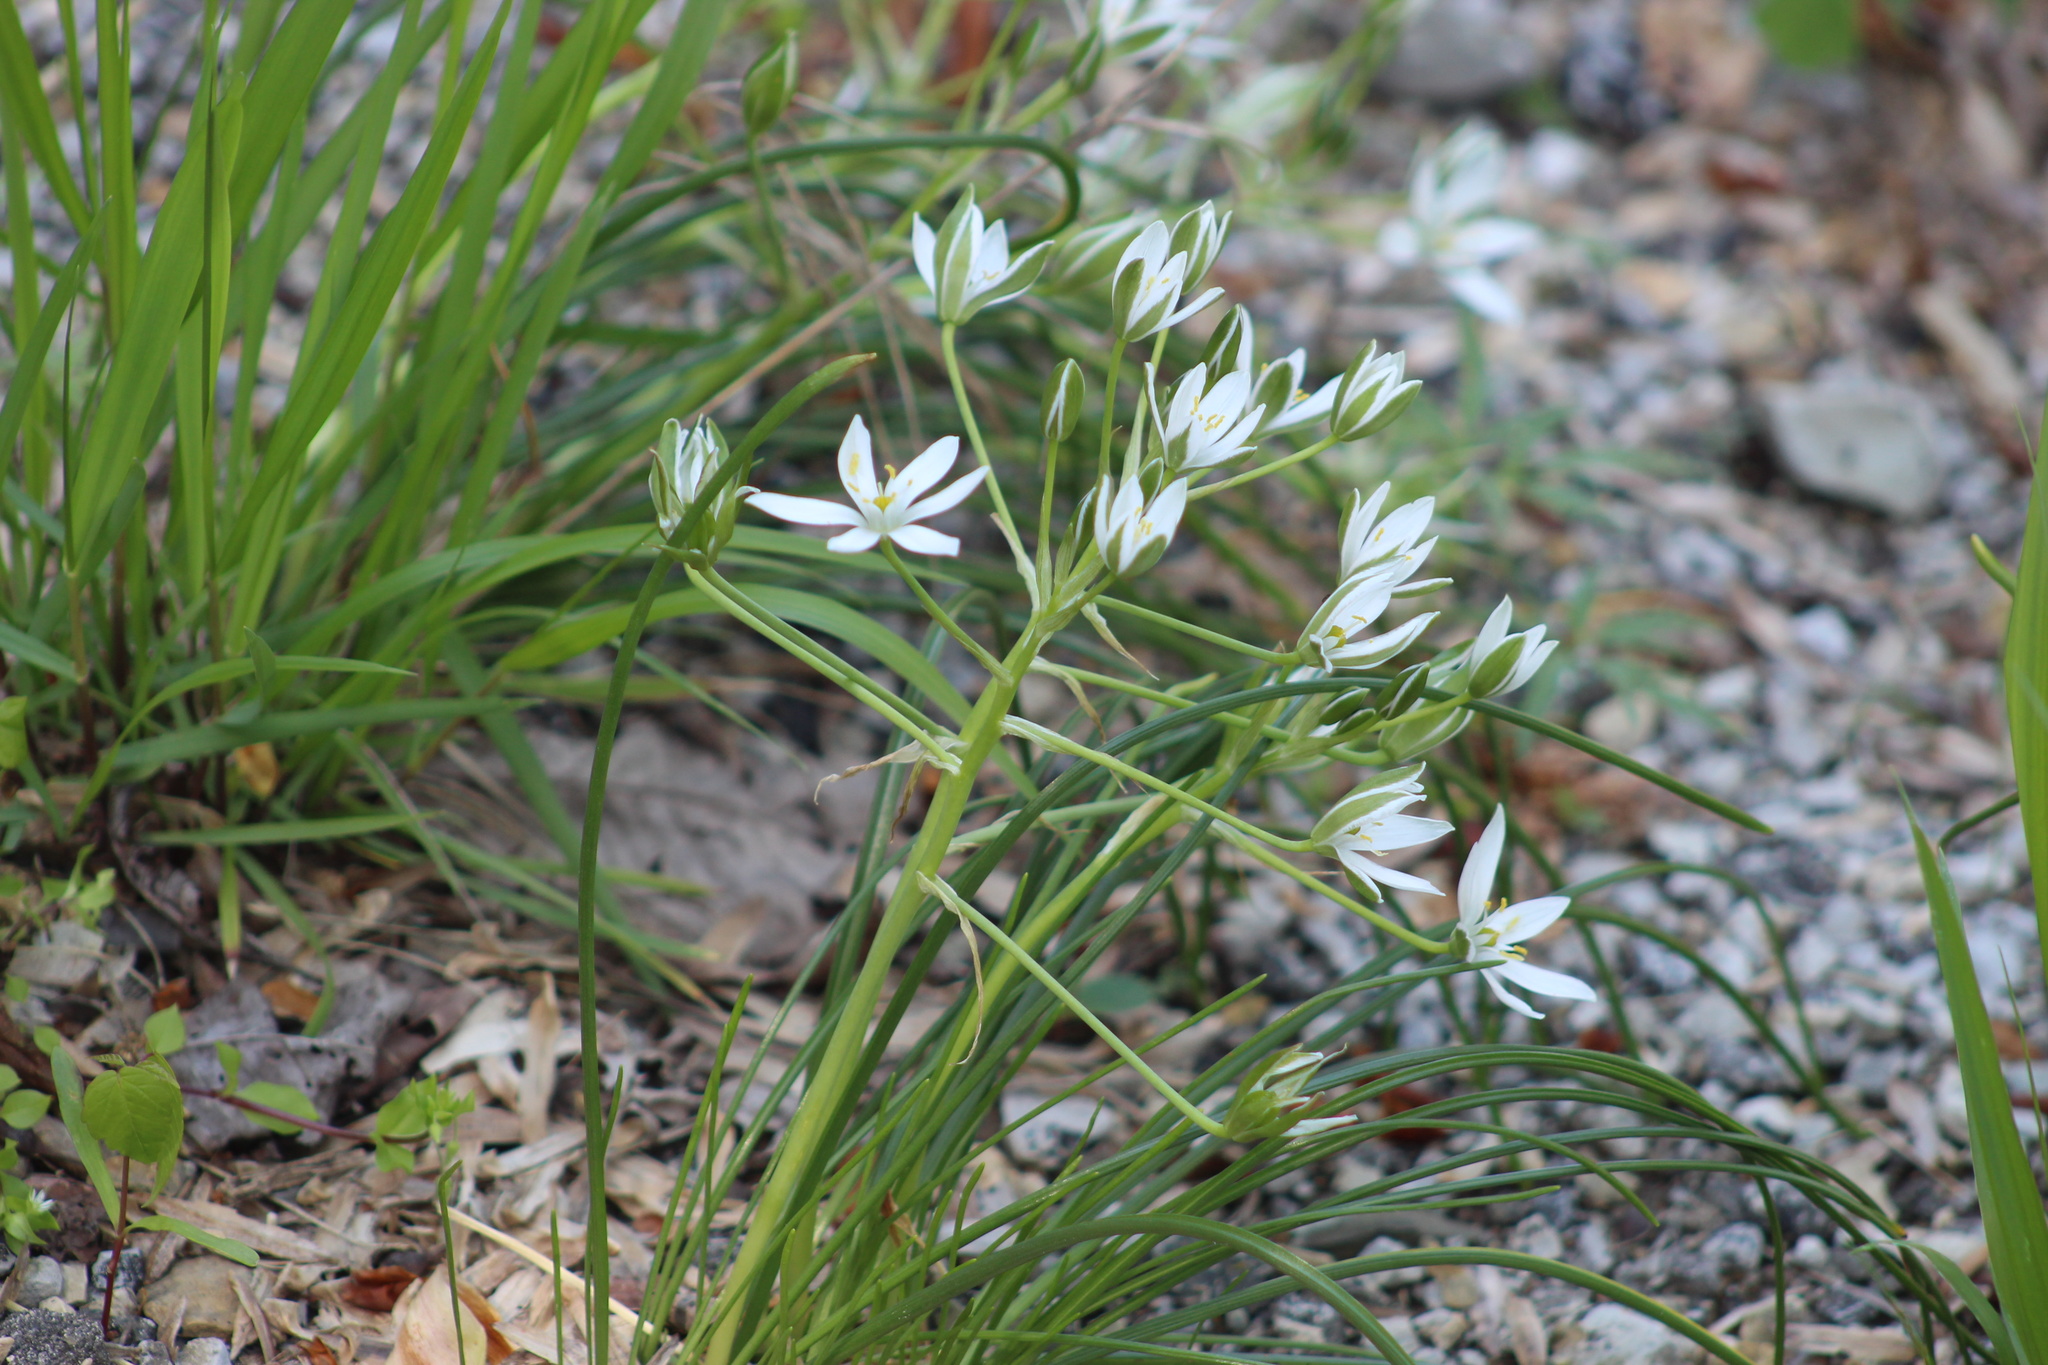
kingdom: Plantae
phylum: Tracheophyta
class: Liliopsida
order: Asparagales
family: Asparagaceae
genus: Ornithogalum
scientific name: Ornithogalum umbellatum
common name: Garden star-of-bethlehem
